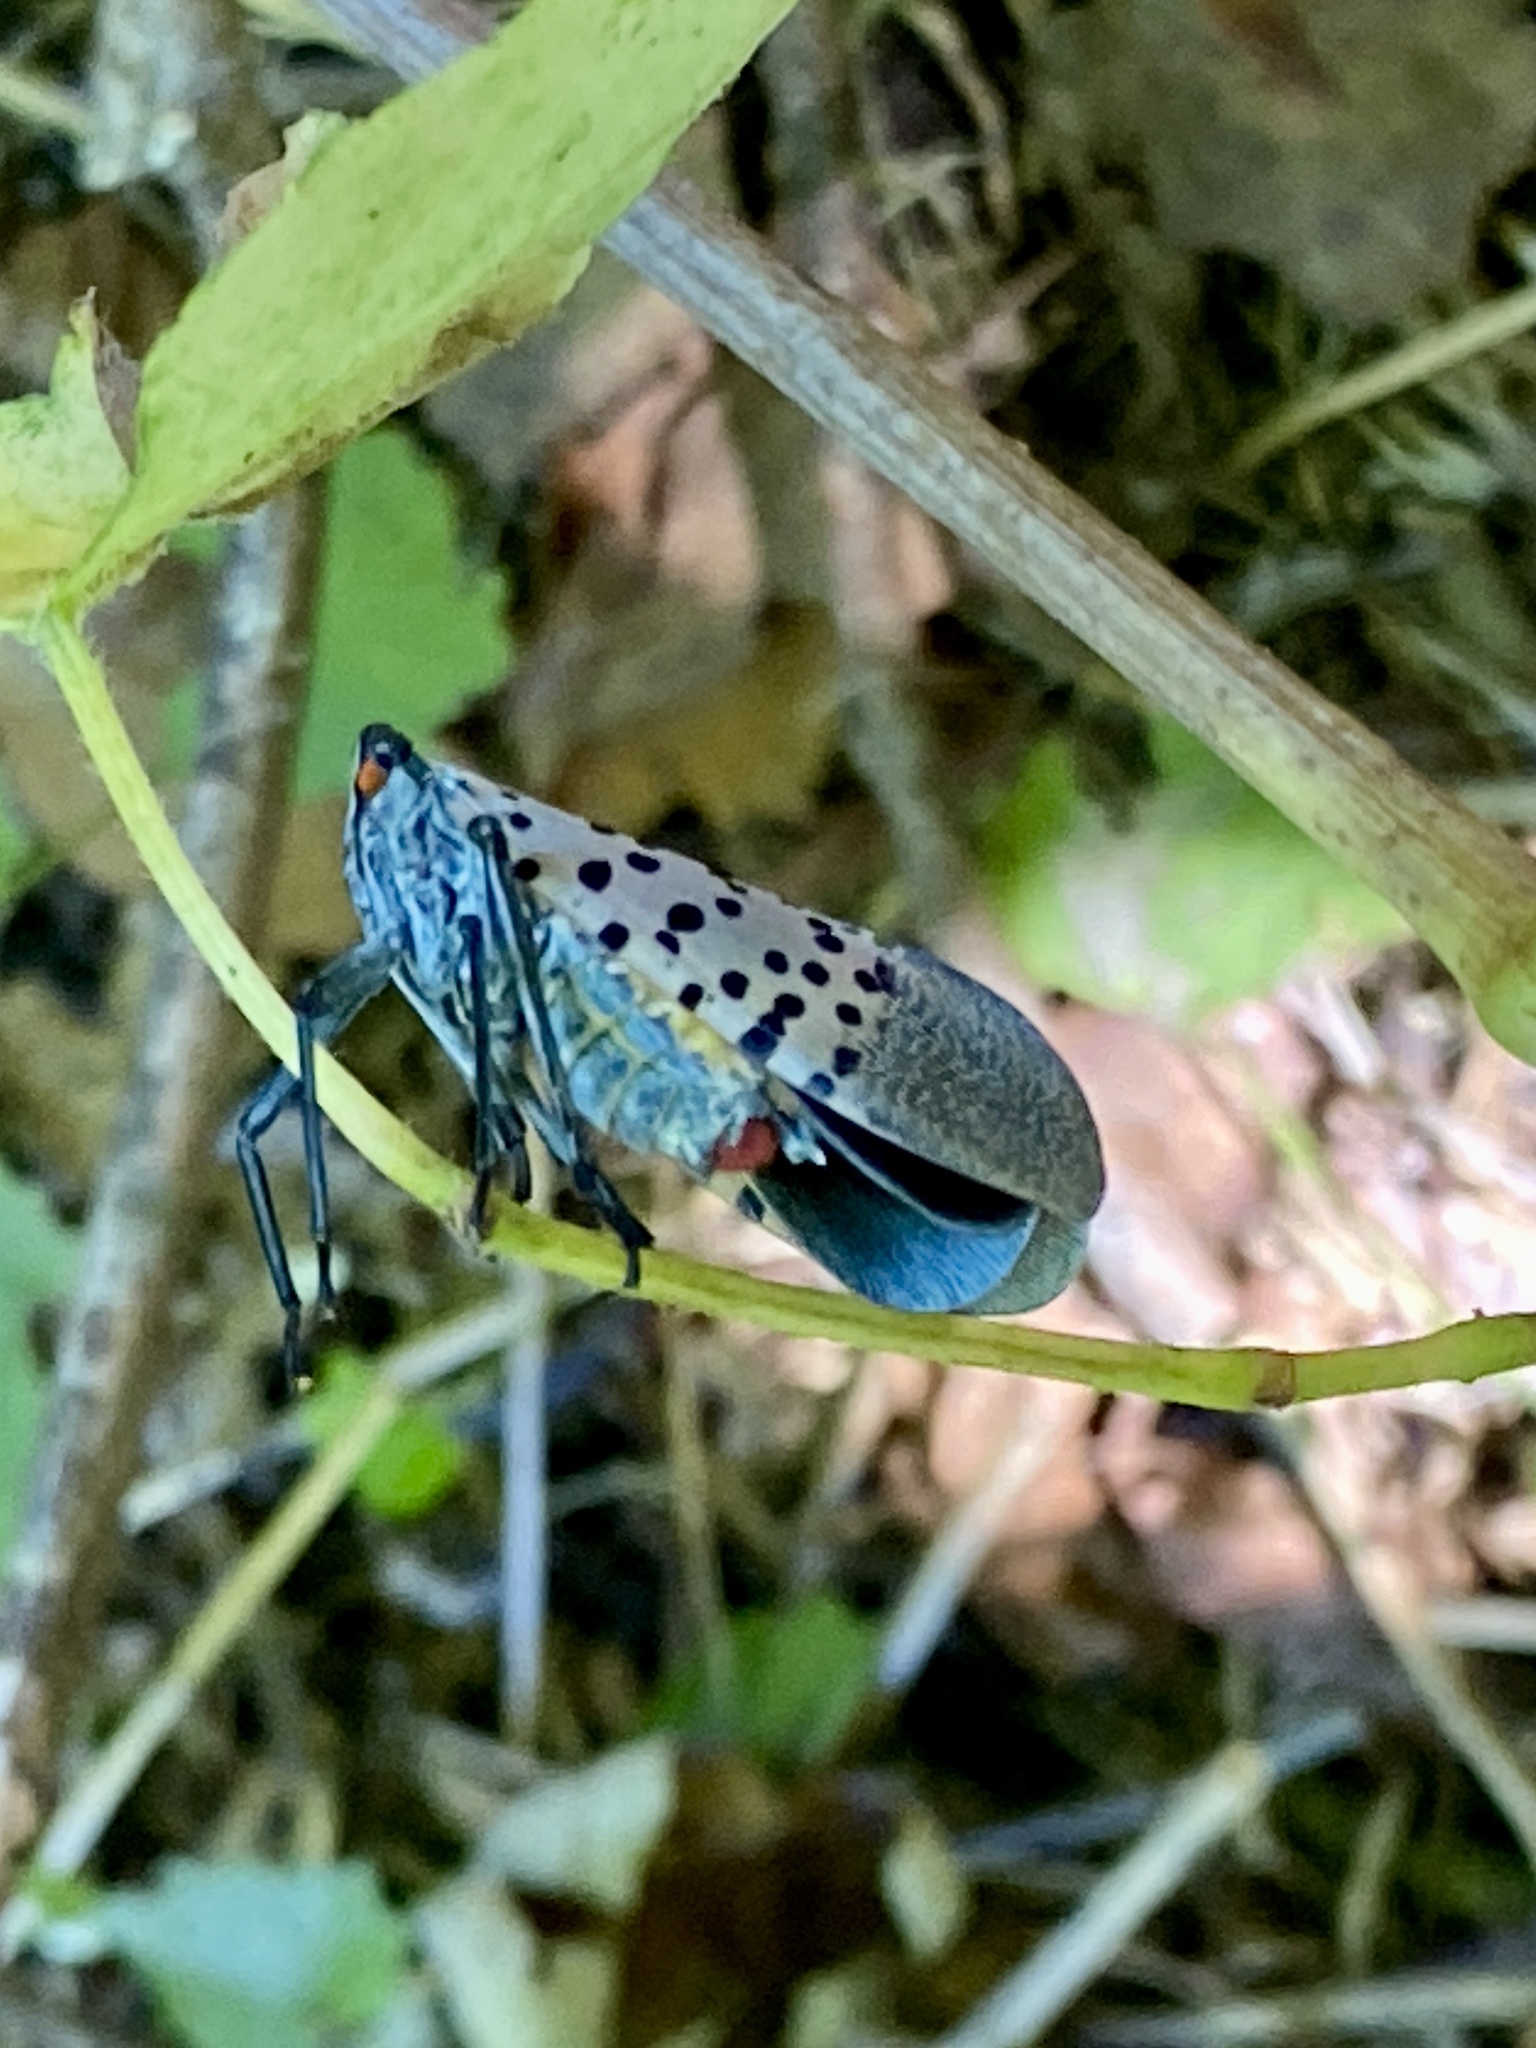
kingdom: Animalia
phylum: Arthropoda
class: Insecta
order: Hemiptera
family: Fulgoridae
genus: Lycorma
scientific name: Lycorma delicatula
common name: Spotted lanternfly
